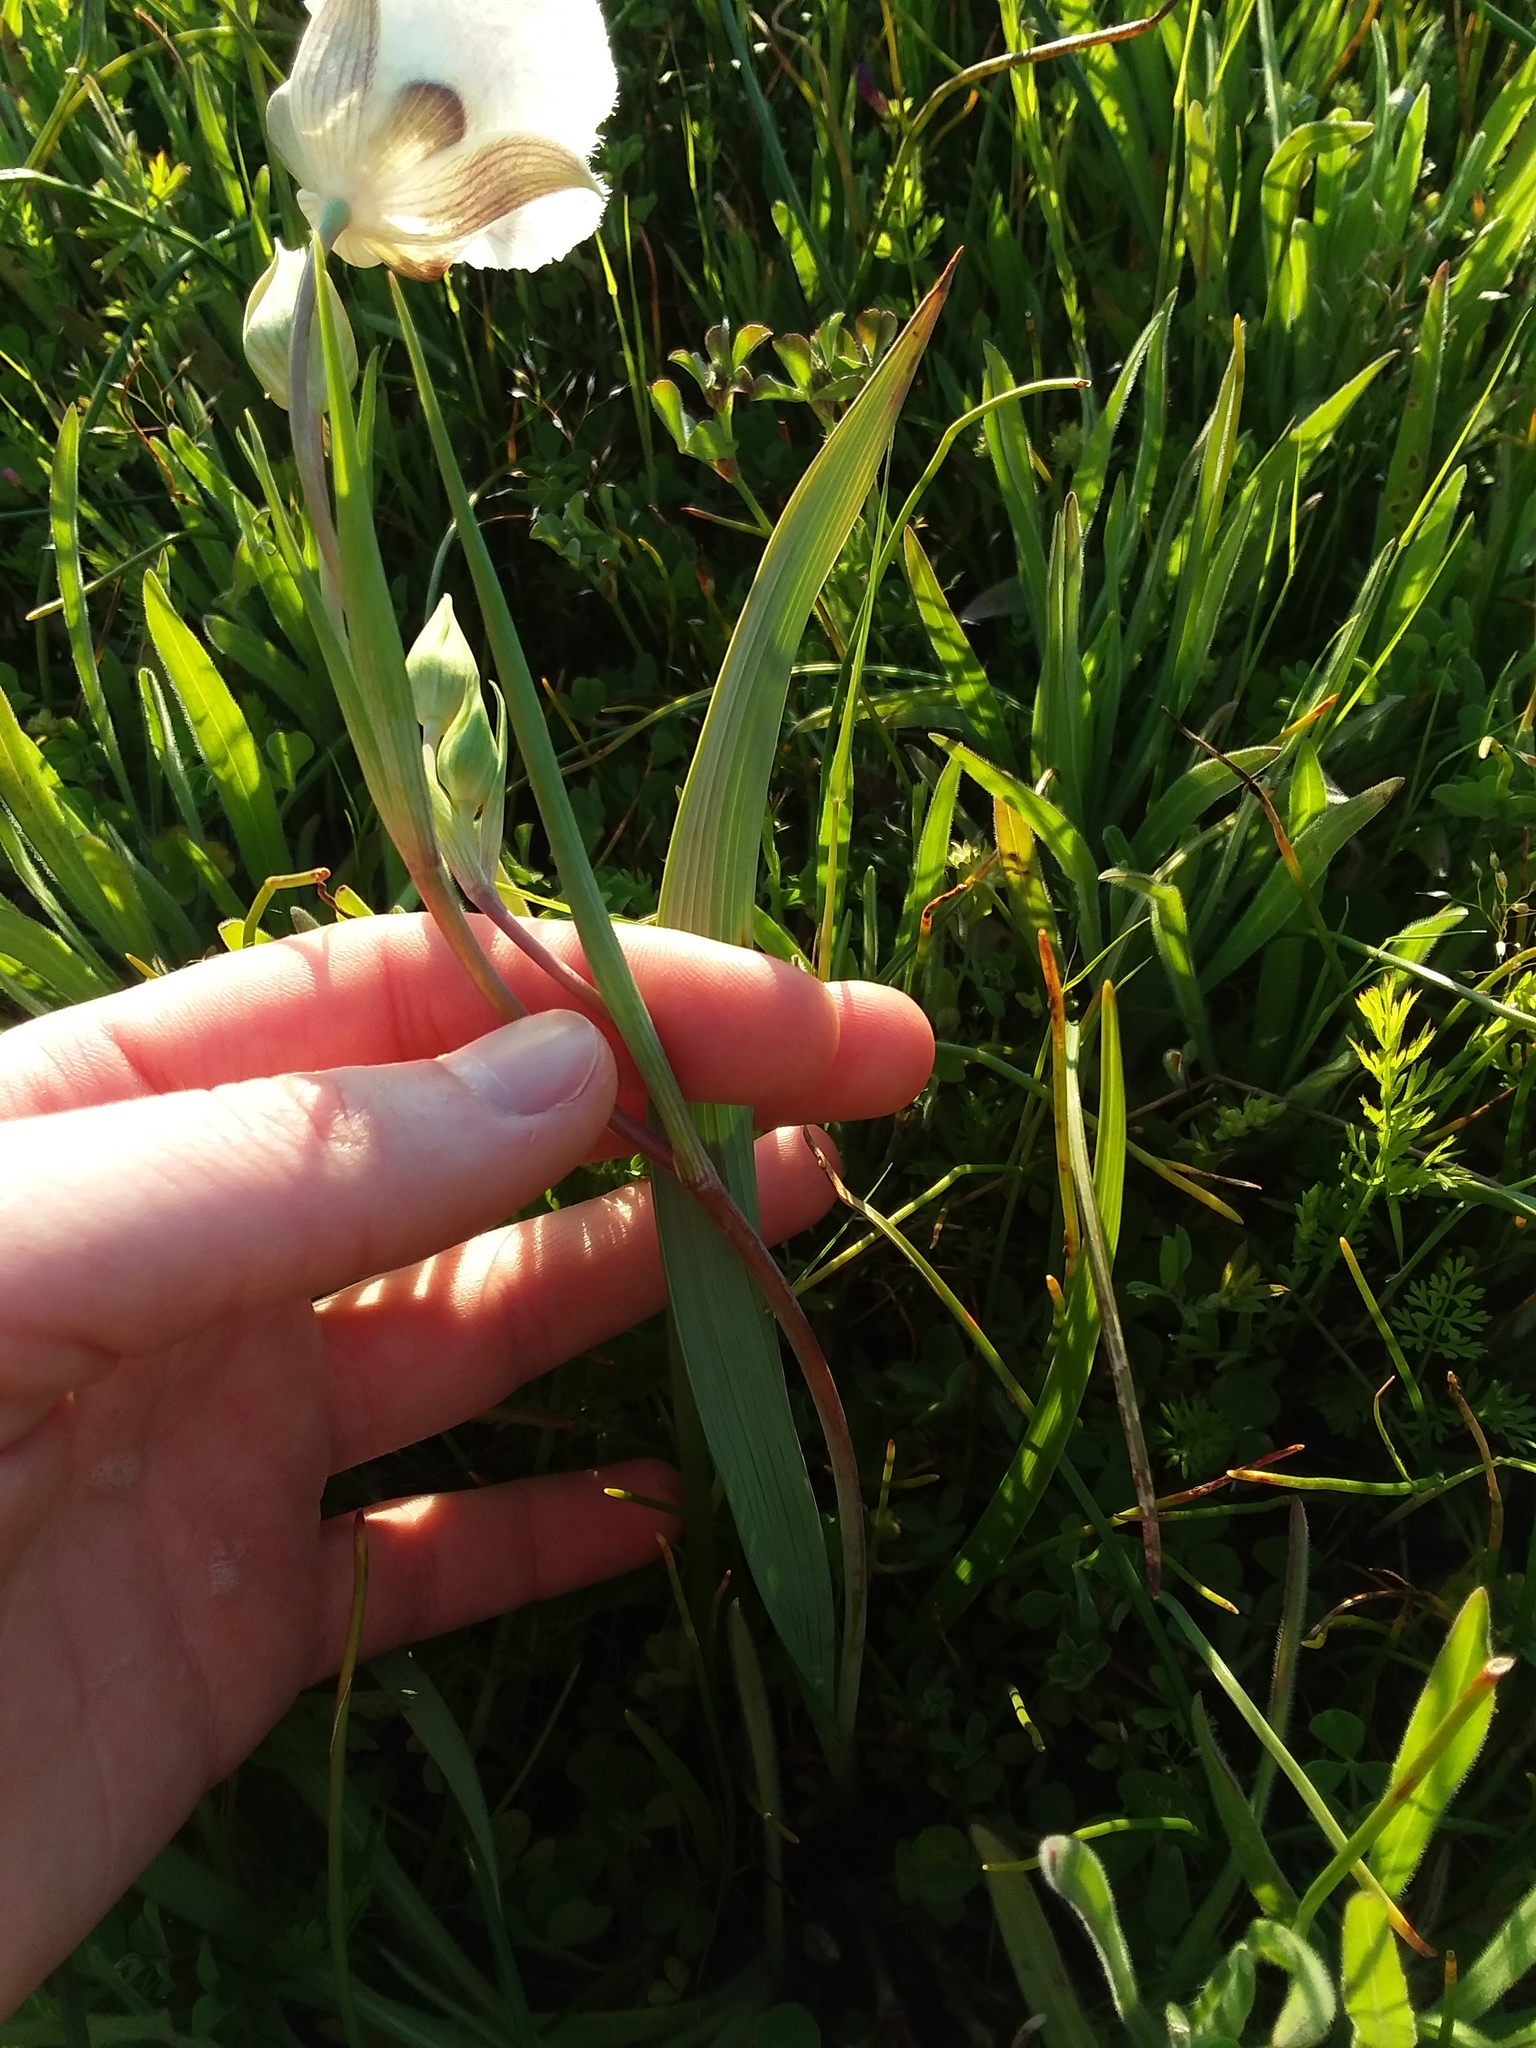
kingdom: Plantae
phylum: Tracheophyta
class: Liliopsida
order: Liliales
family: Liliaceae
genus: Calochortus
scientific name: Calochortus tolmiei
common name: Pussy-ears
